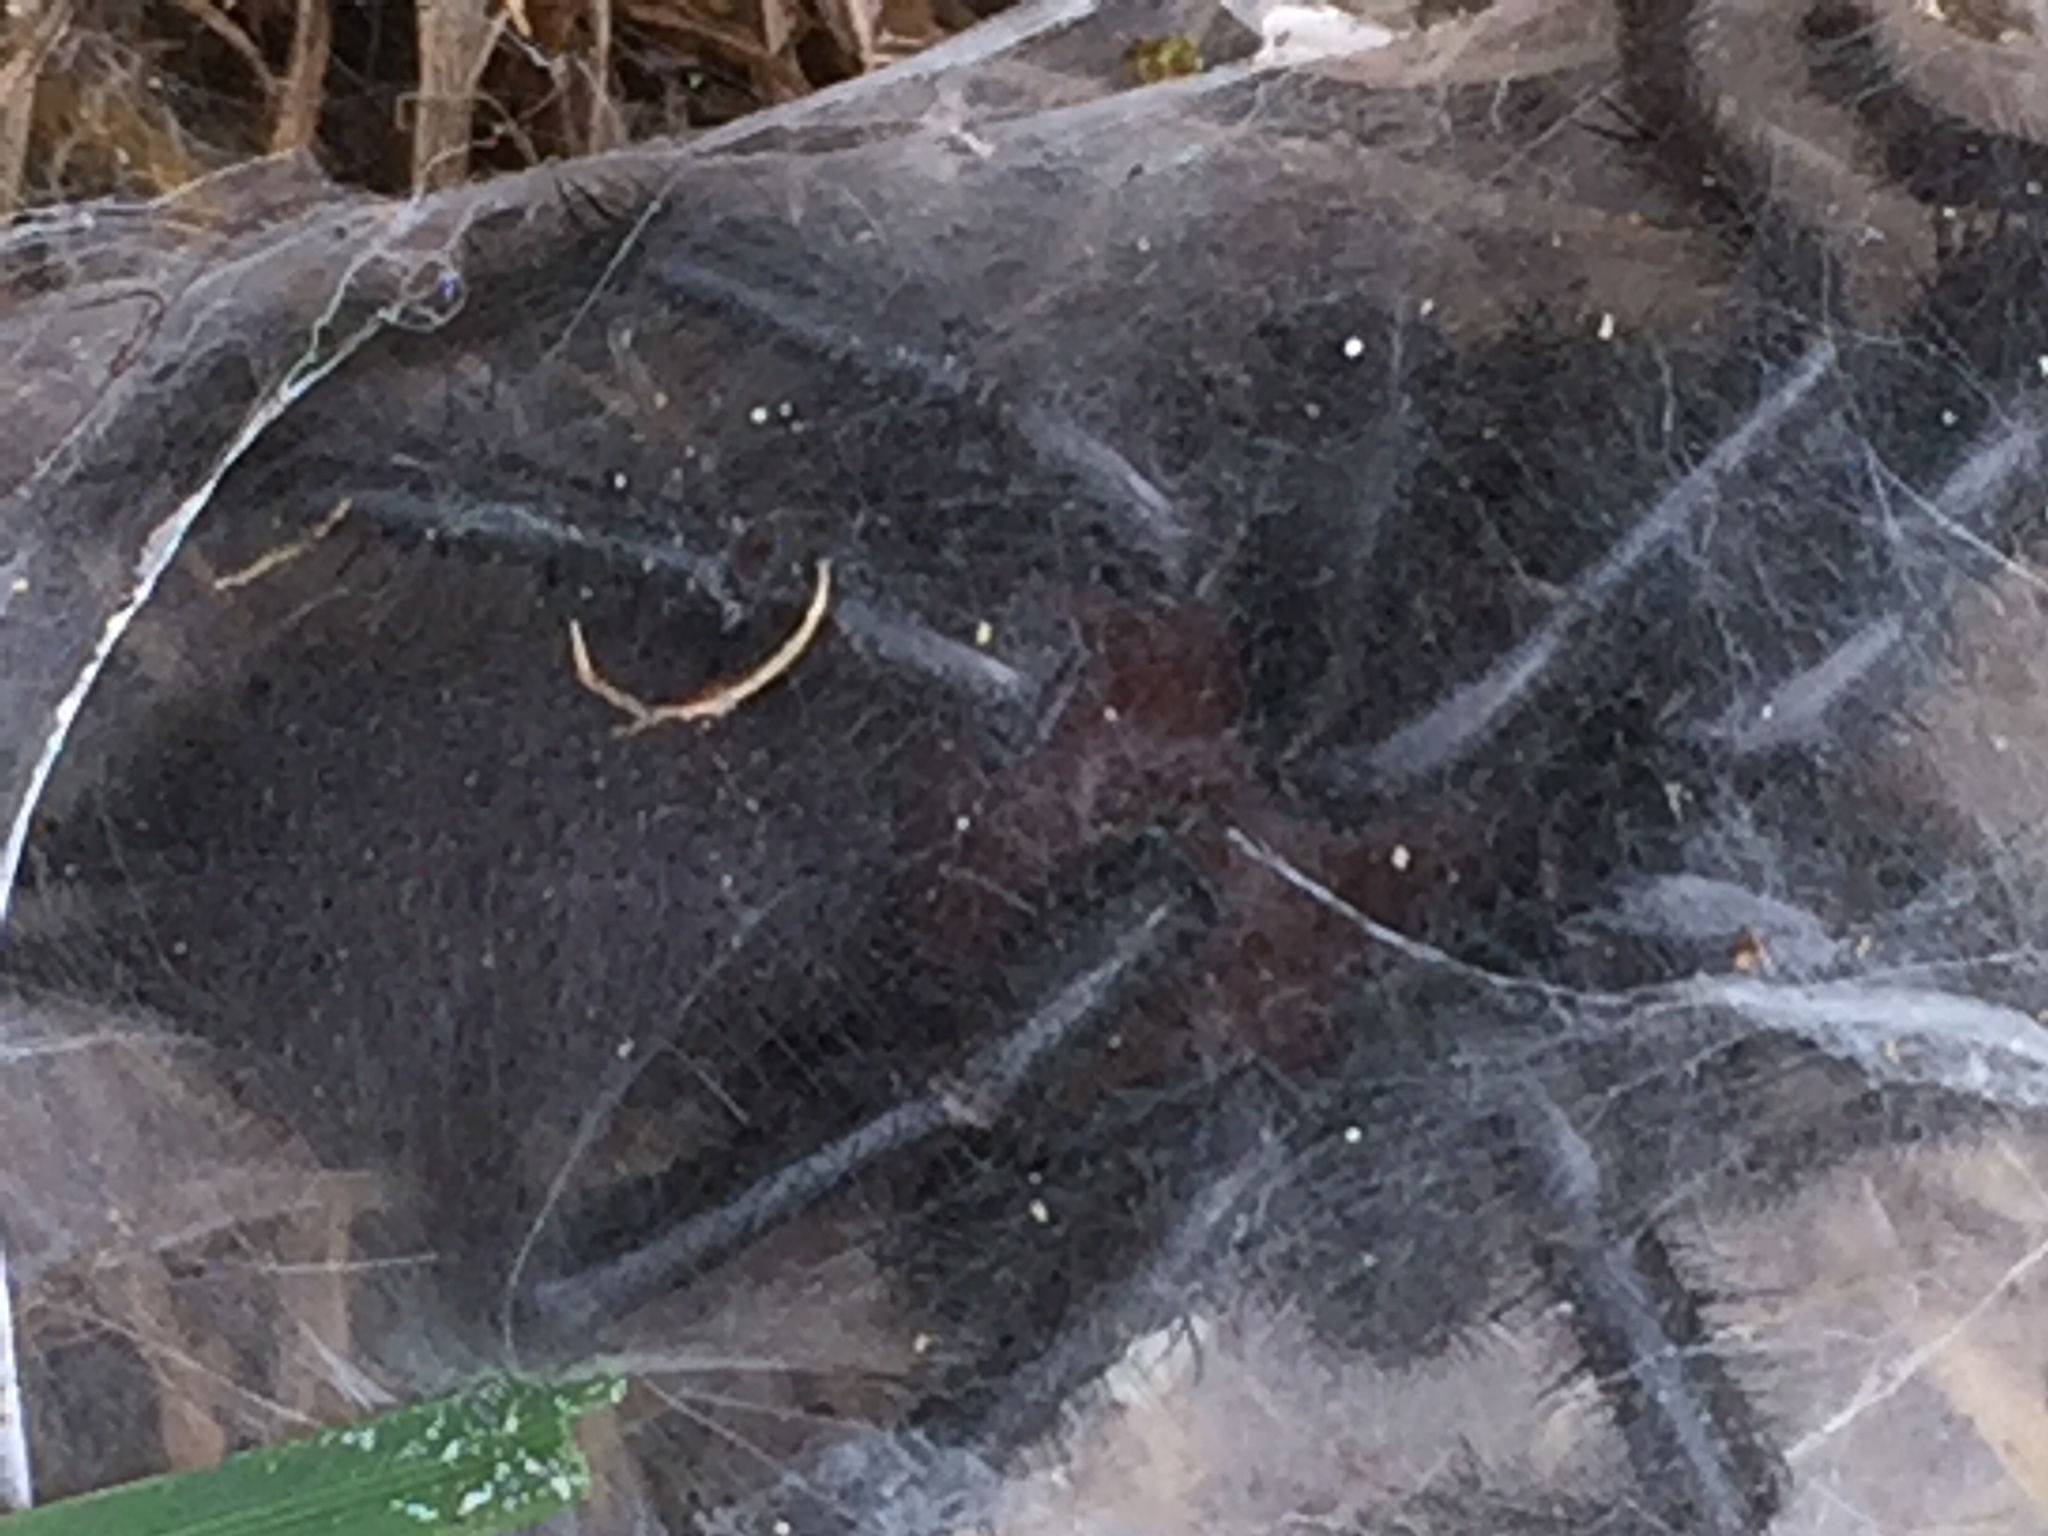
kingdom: Animalia
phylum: Arthropoda
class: Arachnida
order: Araneae
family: Porrhothelidae
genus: Porrhothele
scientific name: Porrhothele antipodiana
